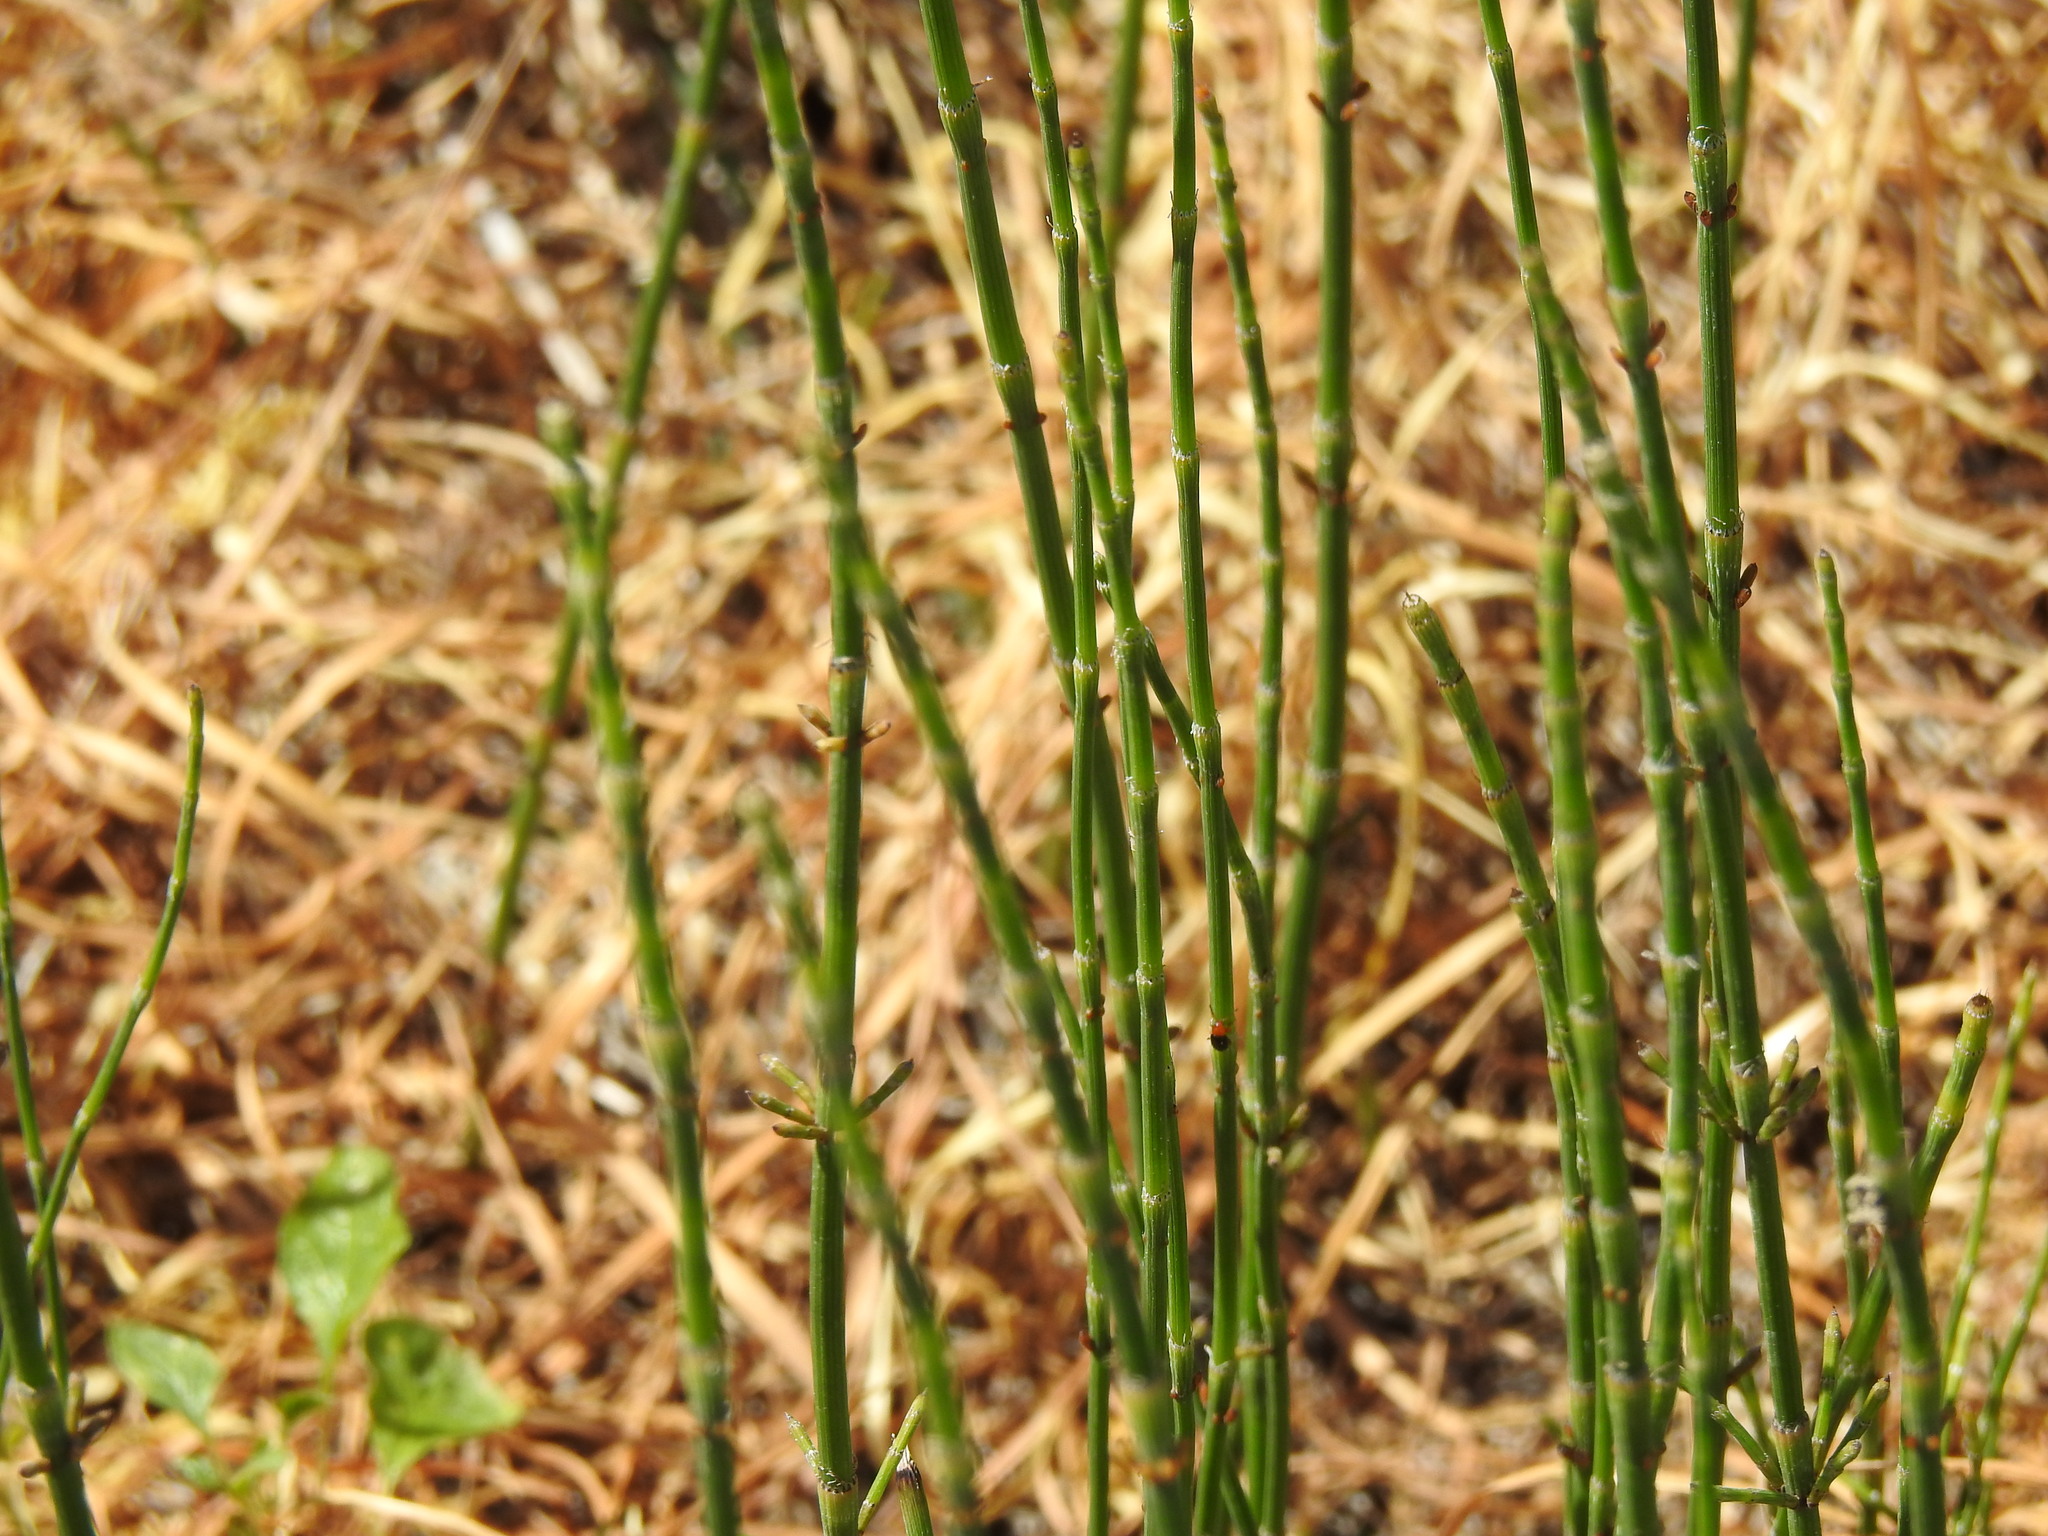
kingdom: Plantae
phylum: Tracheophyta
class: Polypodiopsida
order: Equisetales
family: Equisetaceae
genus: Equisetum
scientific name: Equisetum ramosissimum
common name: Branched horsetail
